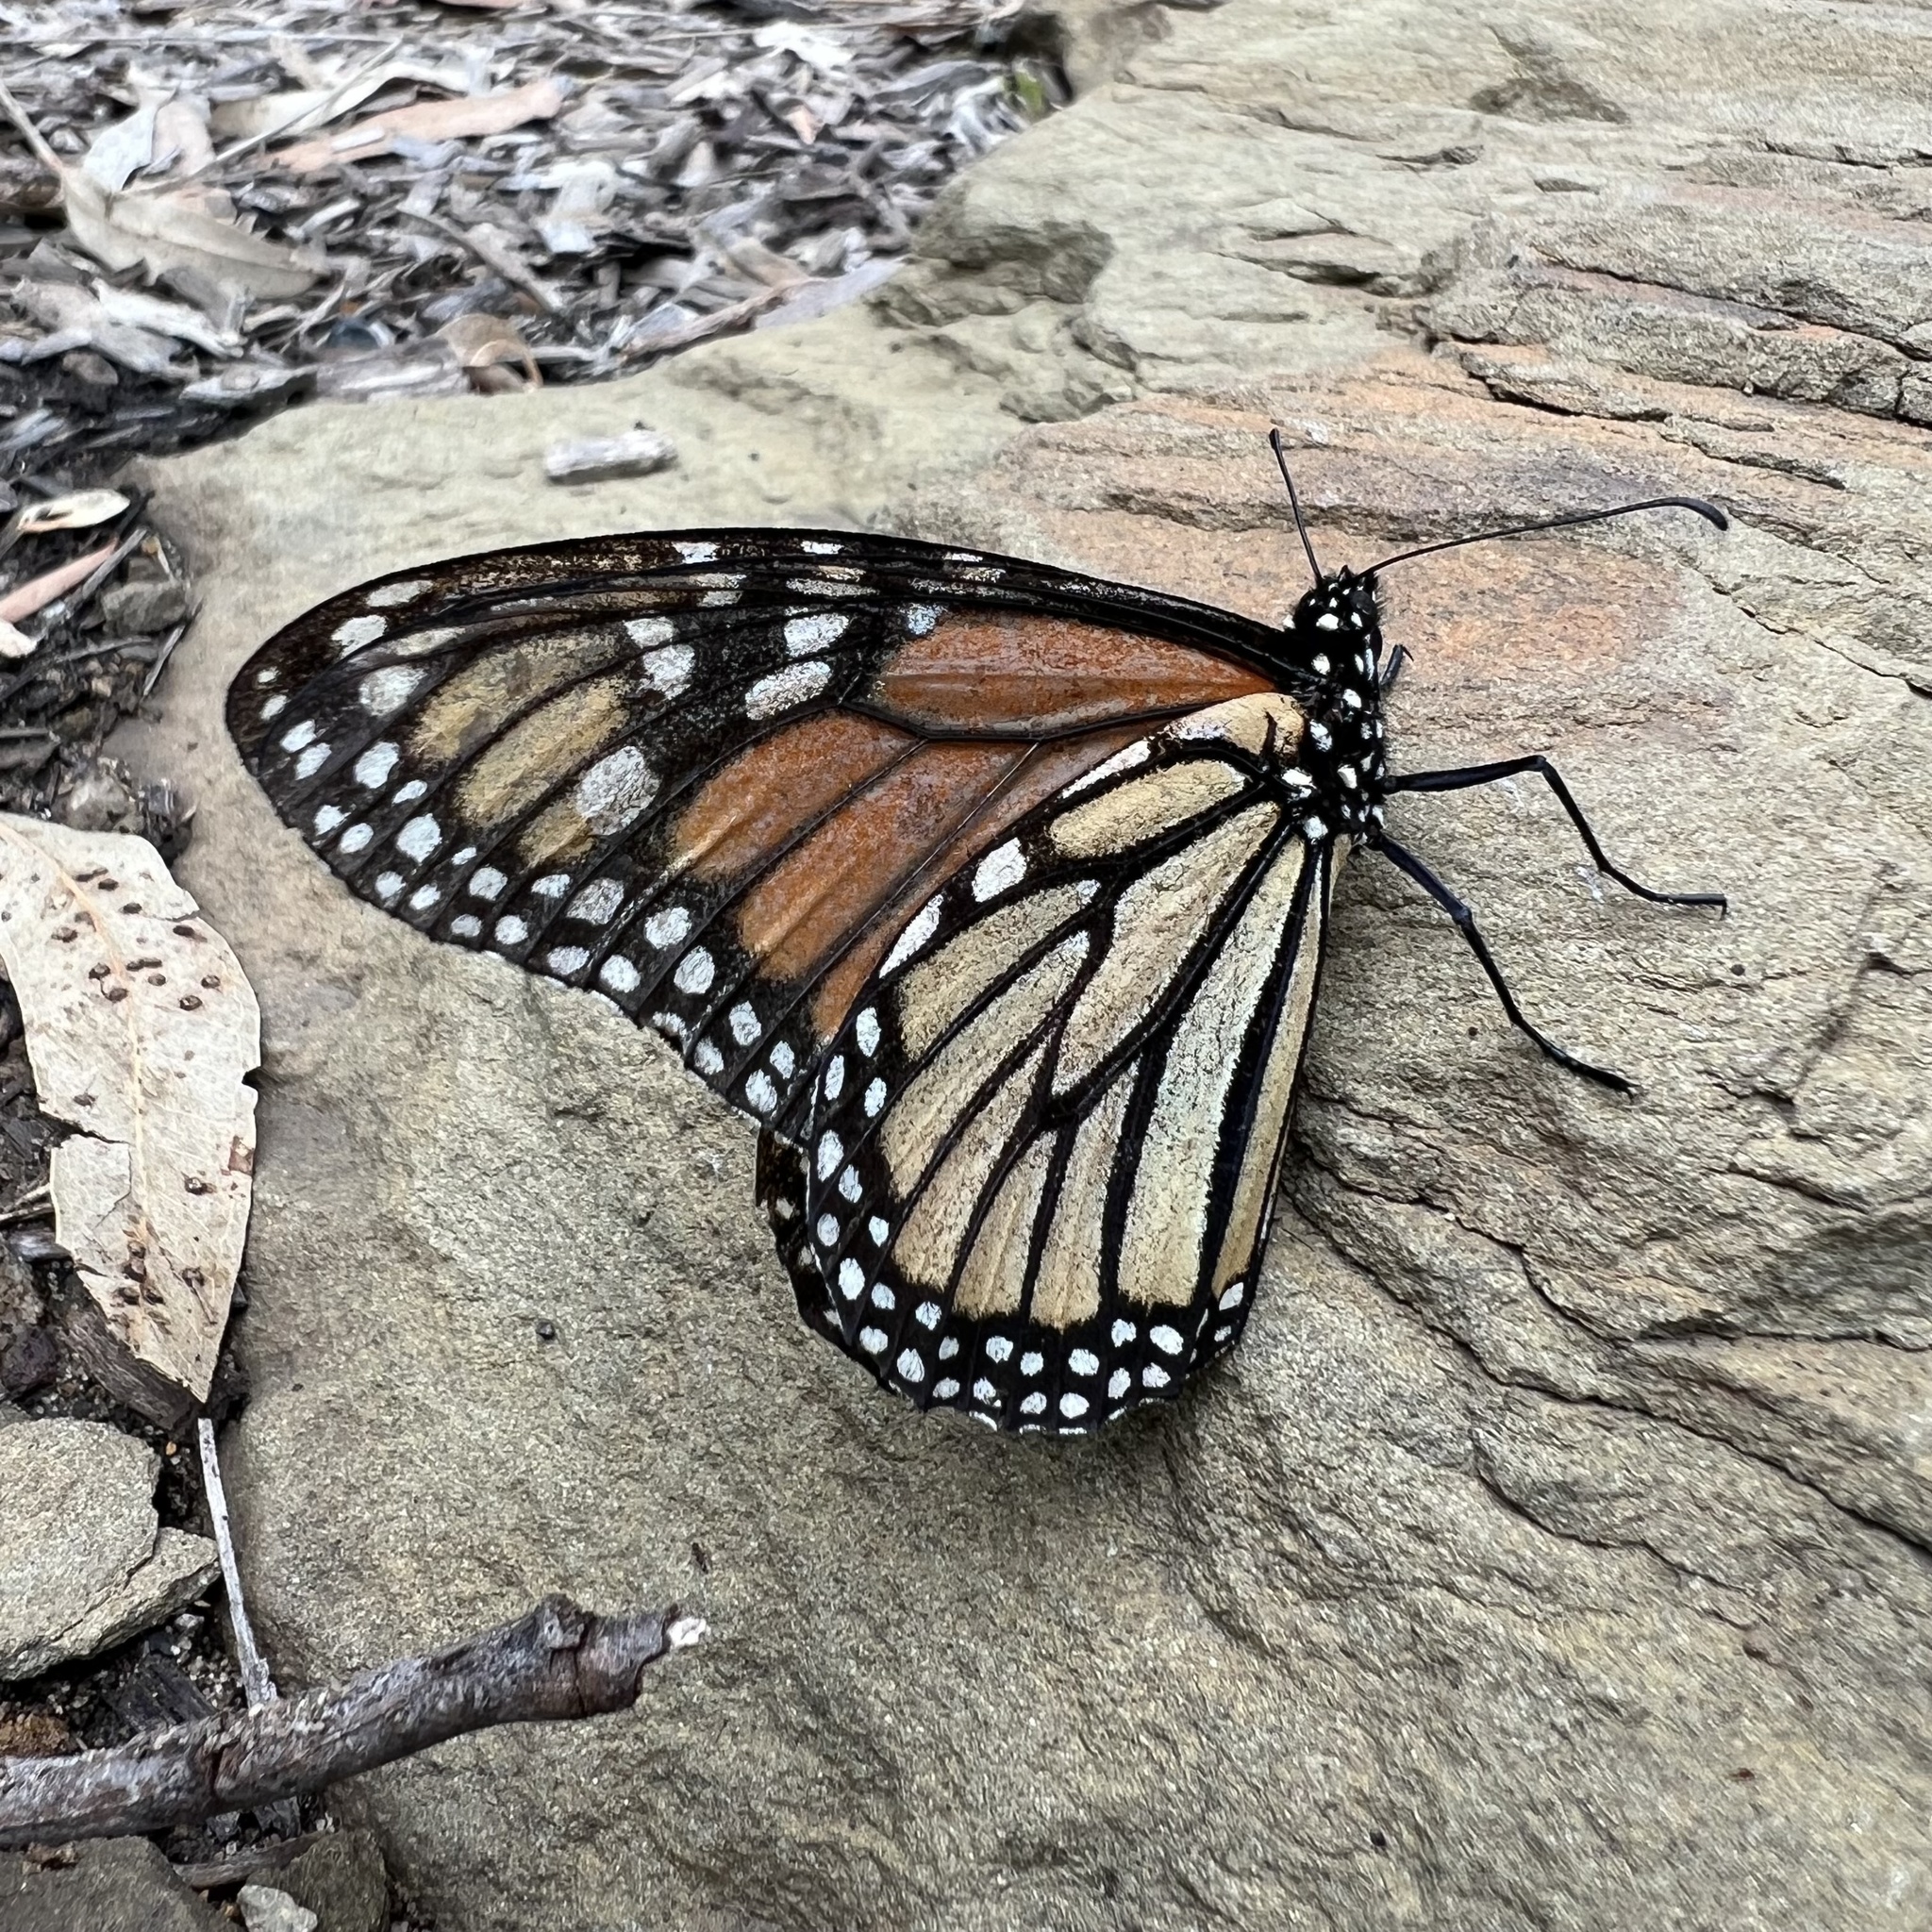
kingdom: Animalia
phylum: Arthropoda
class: Insecta
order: Lepidoptera
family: Nymphalidae
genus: Danaus
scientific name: Danaus plexippus
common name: Monarch
